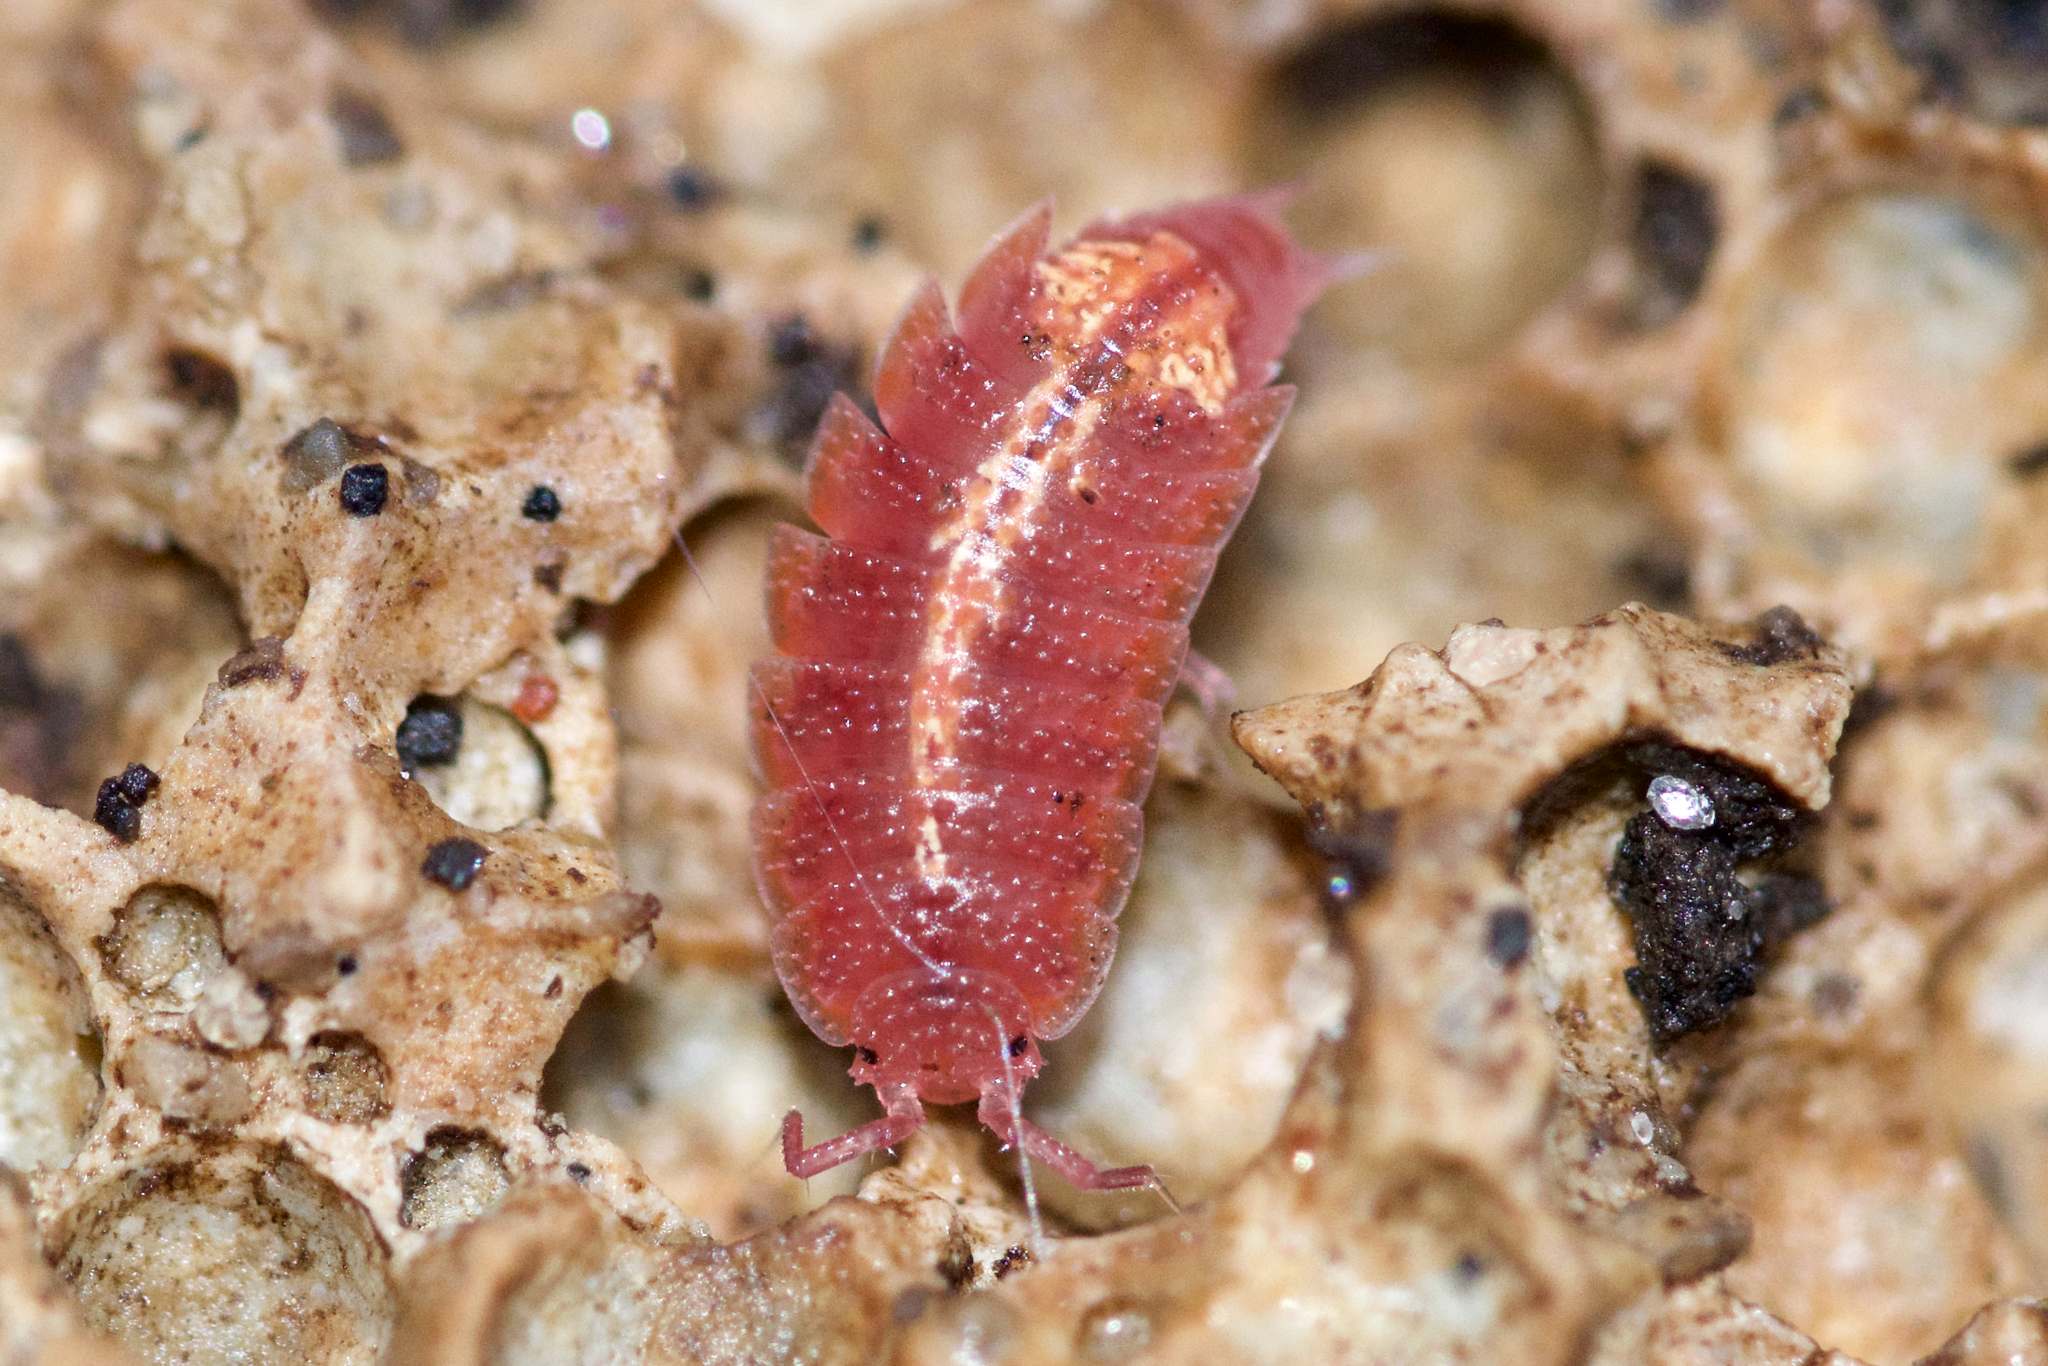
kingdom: Animalia
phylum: Arthropoda
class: Malacostraca
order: Isopoda
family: Trichoniscidae
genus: Androniscus
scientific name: Androniscus dentiger
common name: Rosy woodlouse
